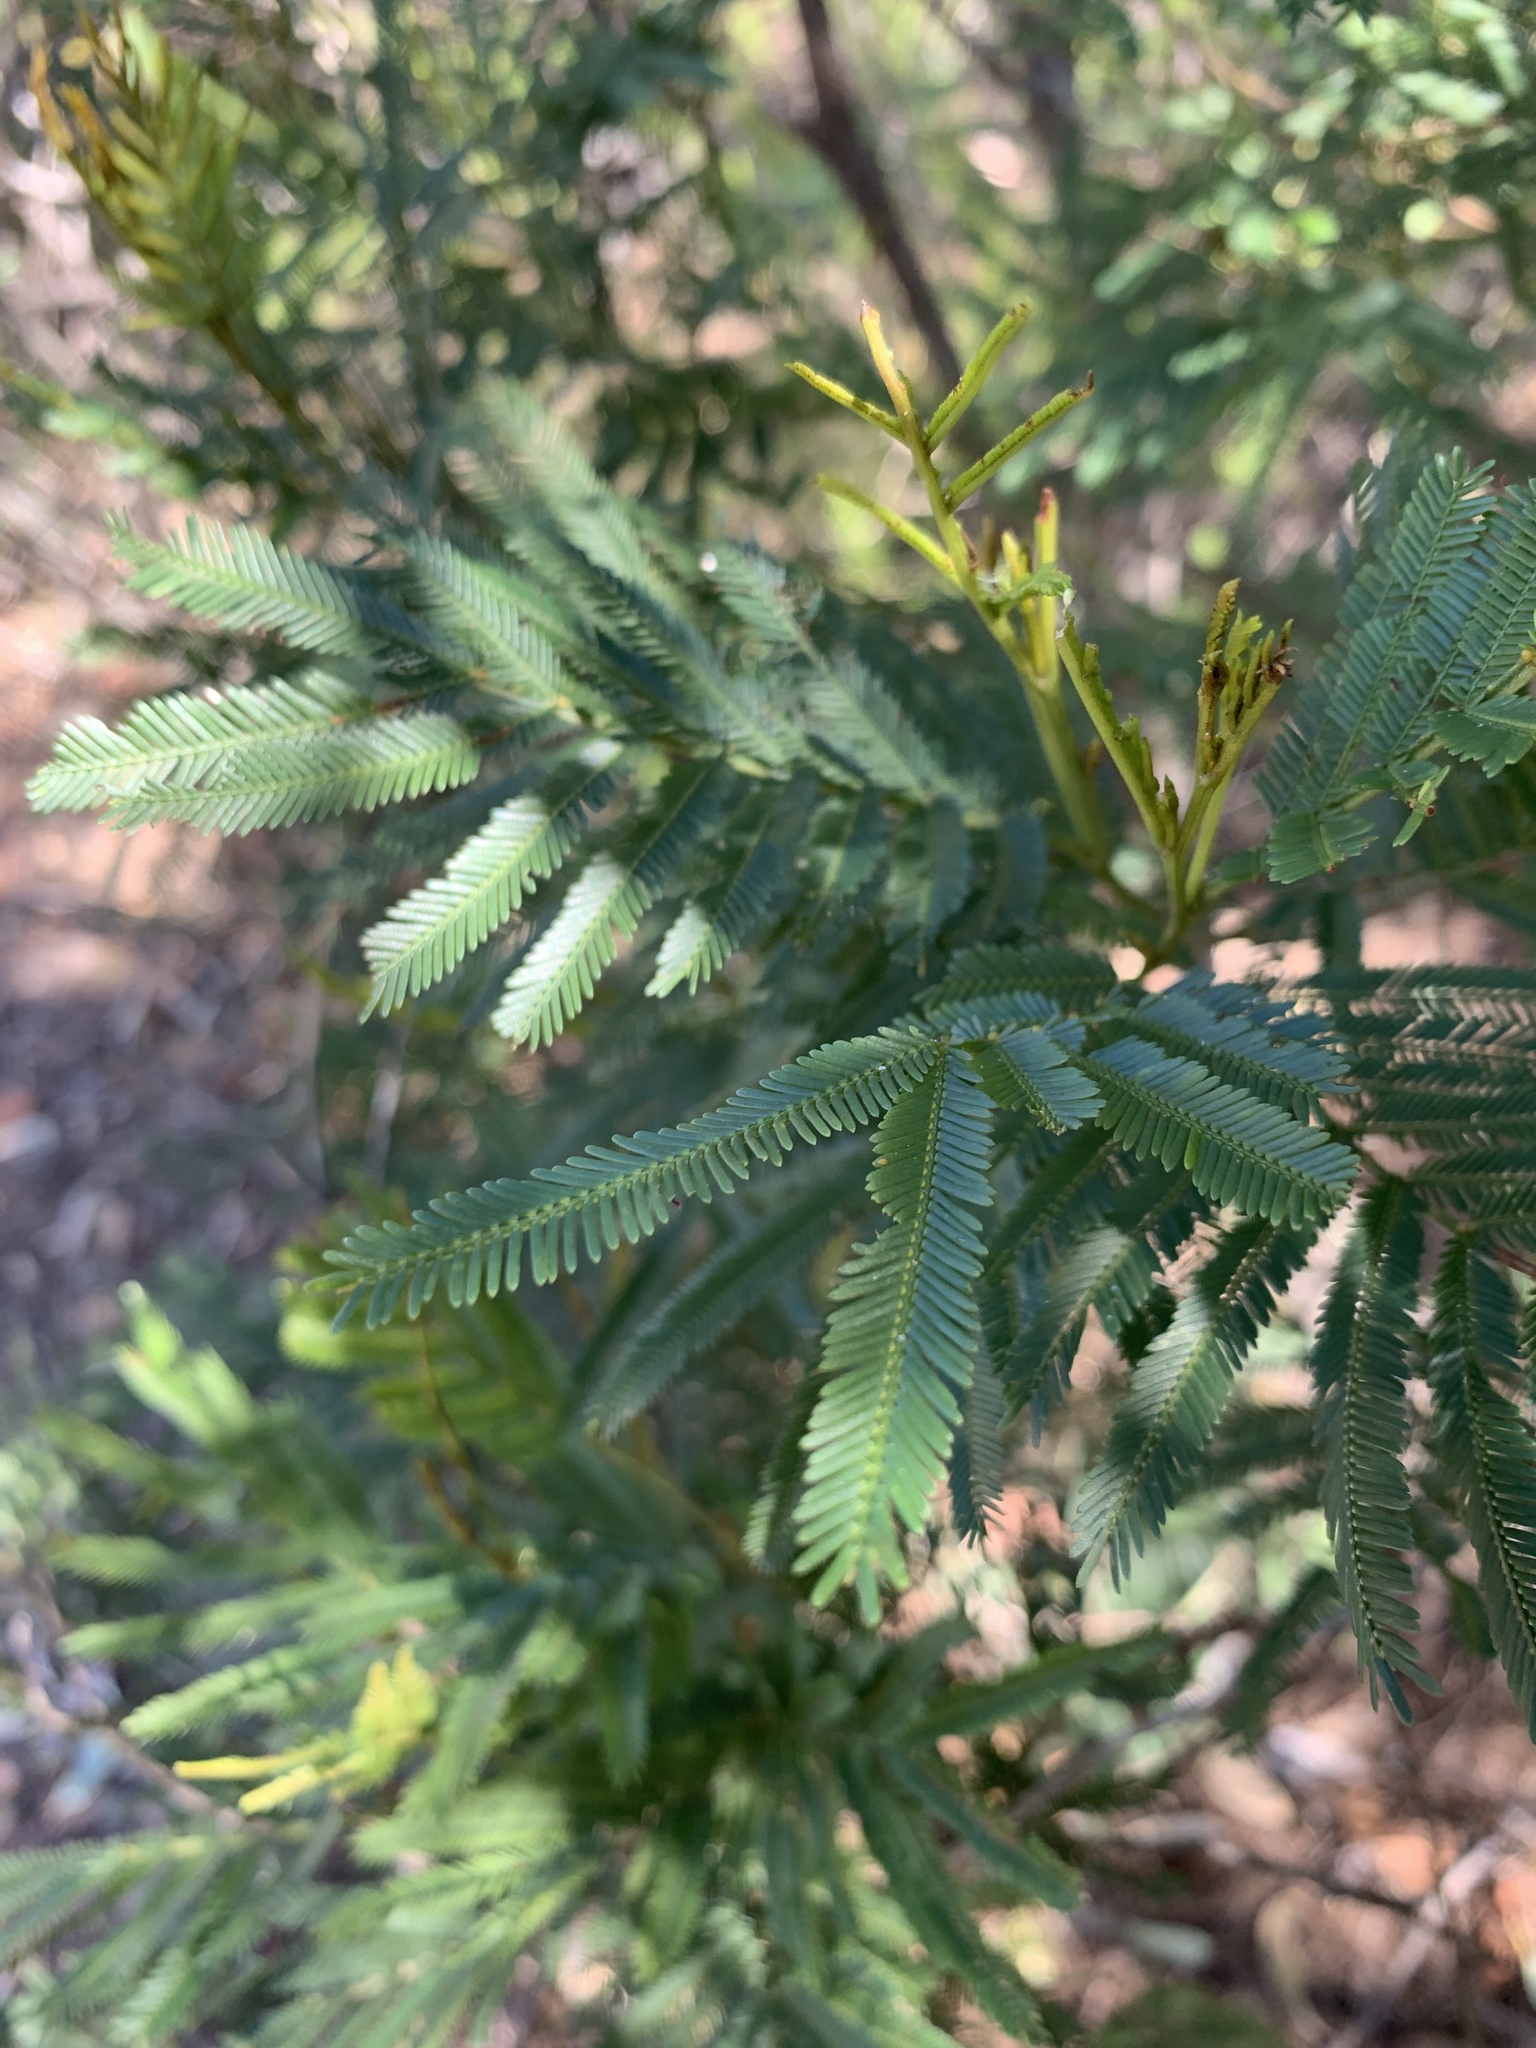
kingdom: Plantae
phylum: Tracheophyta
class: Magnoliopsida
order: Fabales
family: Fabaceae
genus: Acacia
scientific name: Acacia parramattensis
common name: Sydney green wattle
